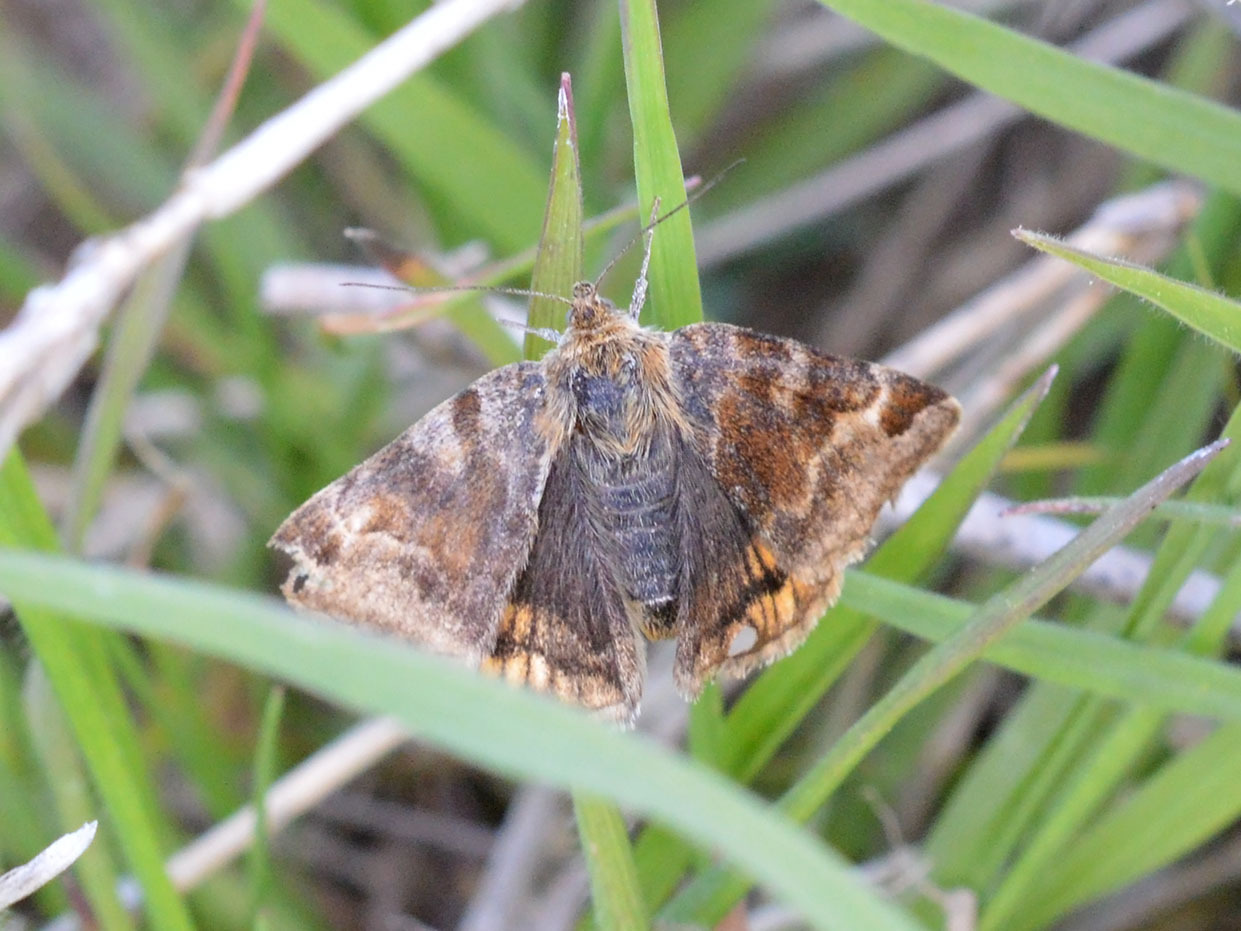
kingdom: Animalia
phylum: Arthropoda
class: Insecta
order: Lepidoptera
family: Erebidae
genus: Euclidia
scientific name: Euclidia glyphica
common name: Burnet companion
